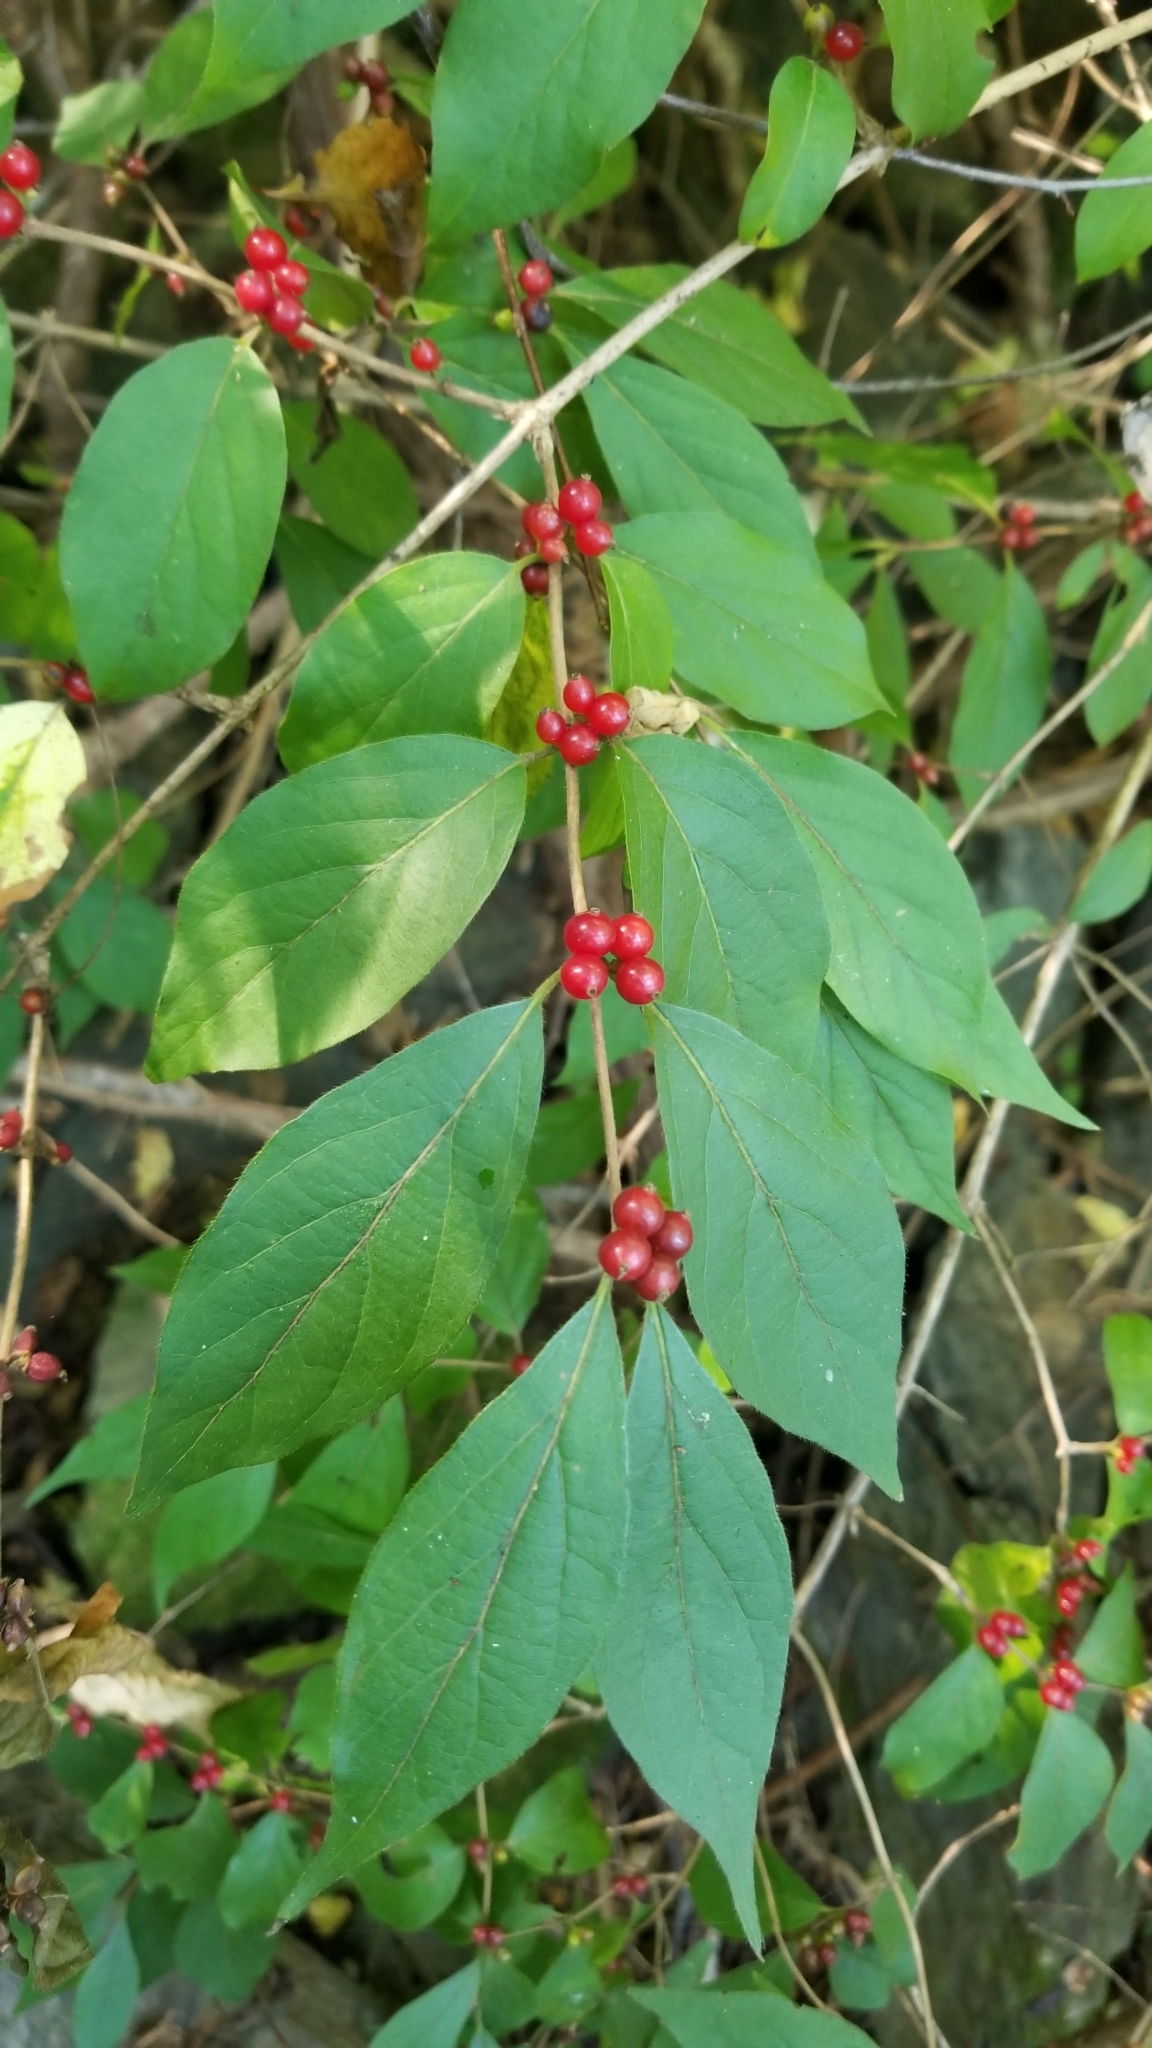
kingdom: Plantae
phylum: Tracheophyta
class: Magnoliopsida
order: Dipsacales
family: Caprifoliaceae
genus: Lonicera
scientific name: Lonicera maackii
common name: Amur honeysuckle
